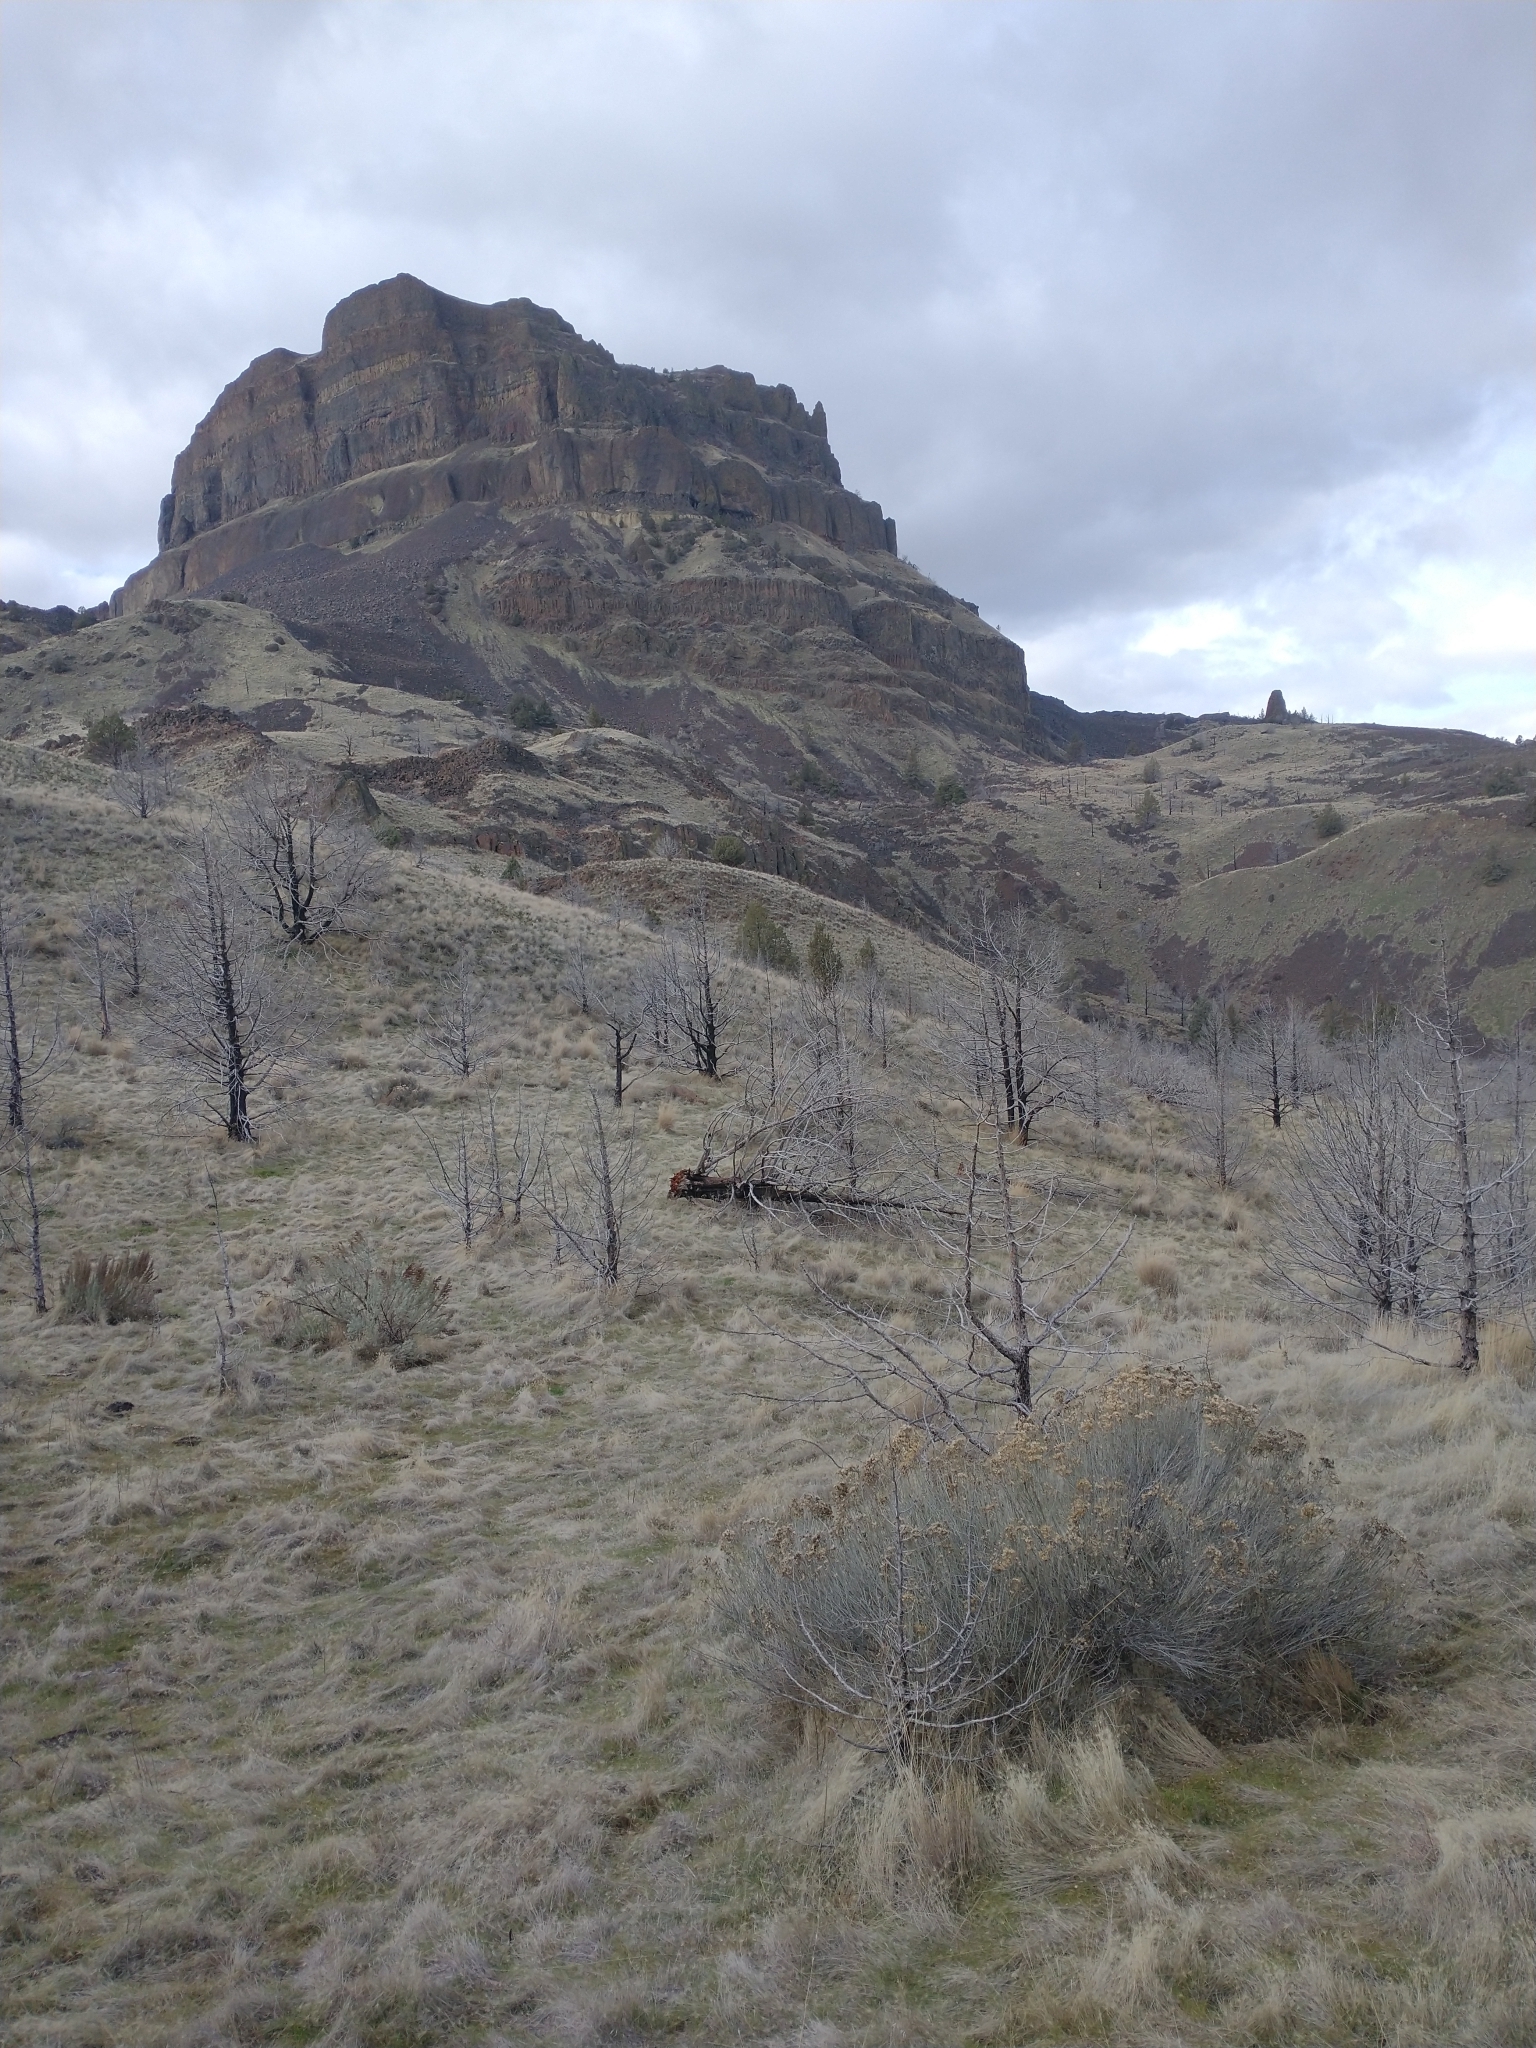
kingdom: Plantae
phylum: Tracheophyta
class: Pinopsida
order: Pinales
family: Cupressaceae
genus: Juniperus
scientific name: Juniperus occidentalis
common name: Western juniper
